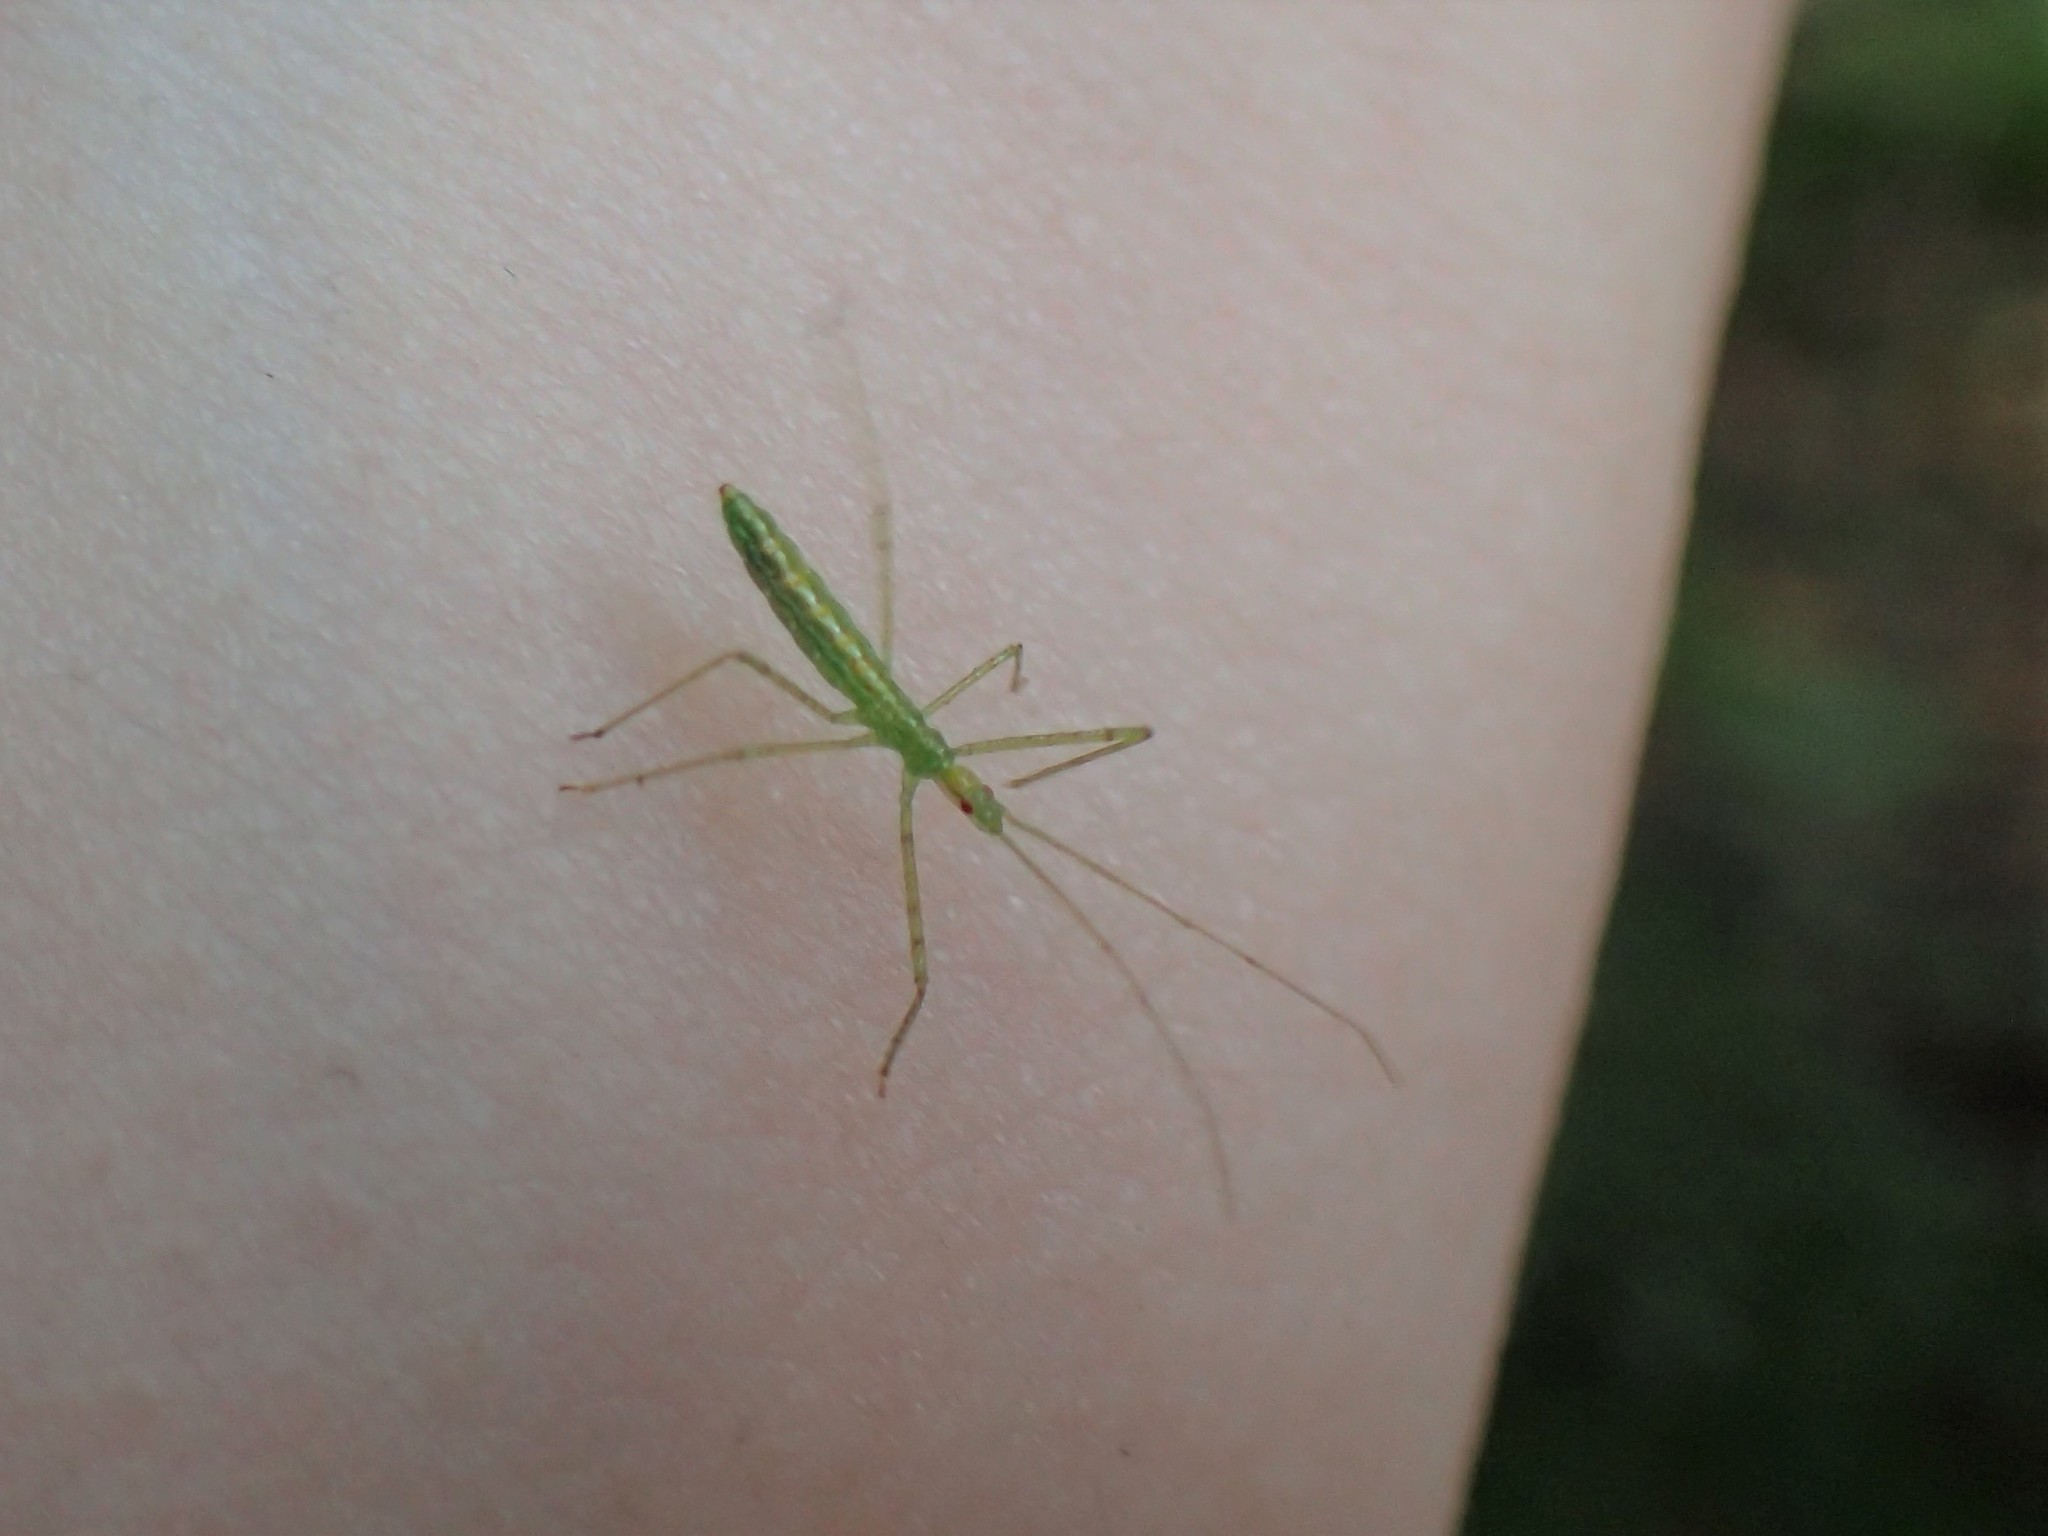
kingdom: Animalia
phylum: Arthropoda
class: Insecta
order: Hemiptera
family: Reduviidae
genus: Zelus
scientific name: Zelus luridus
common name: Pale green assassin bug
